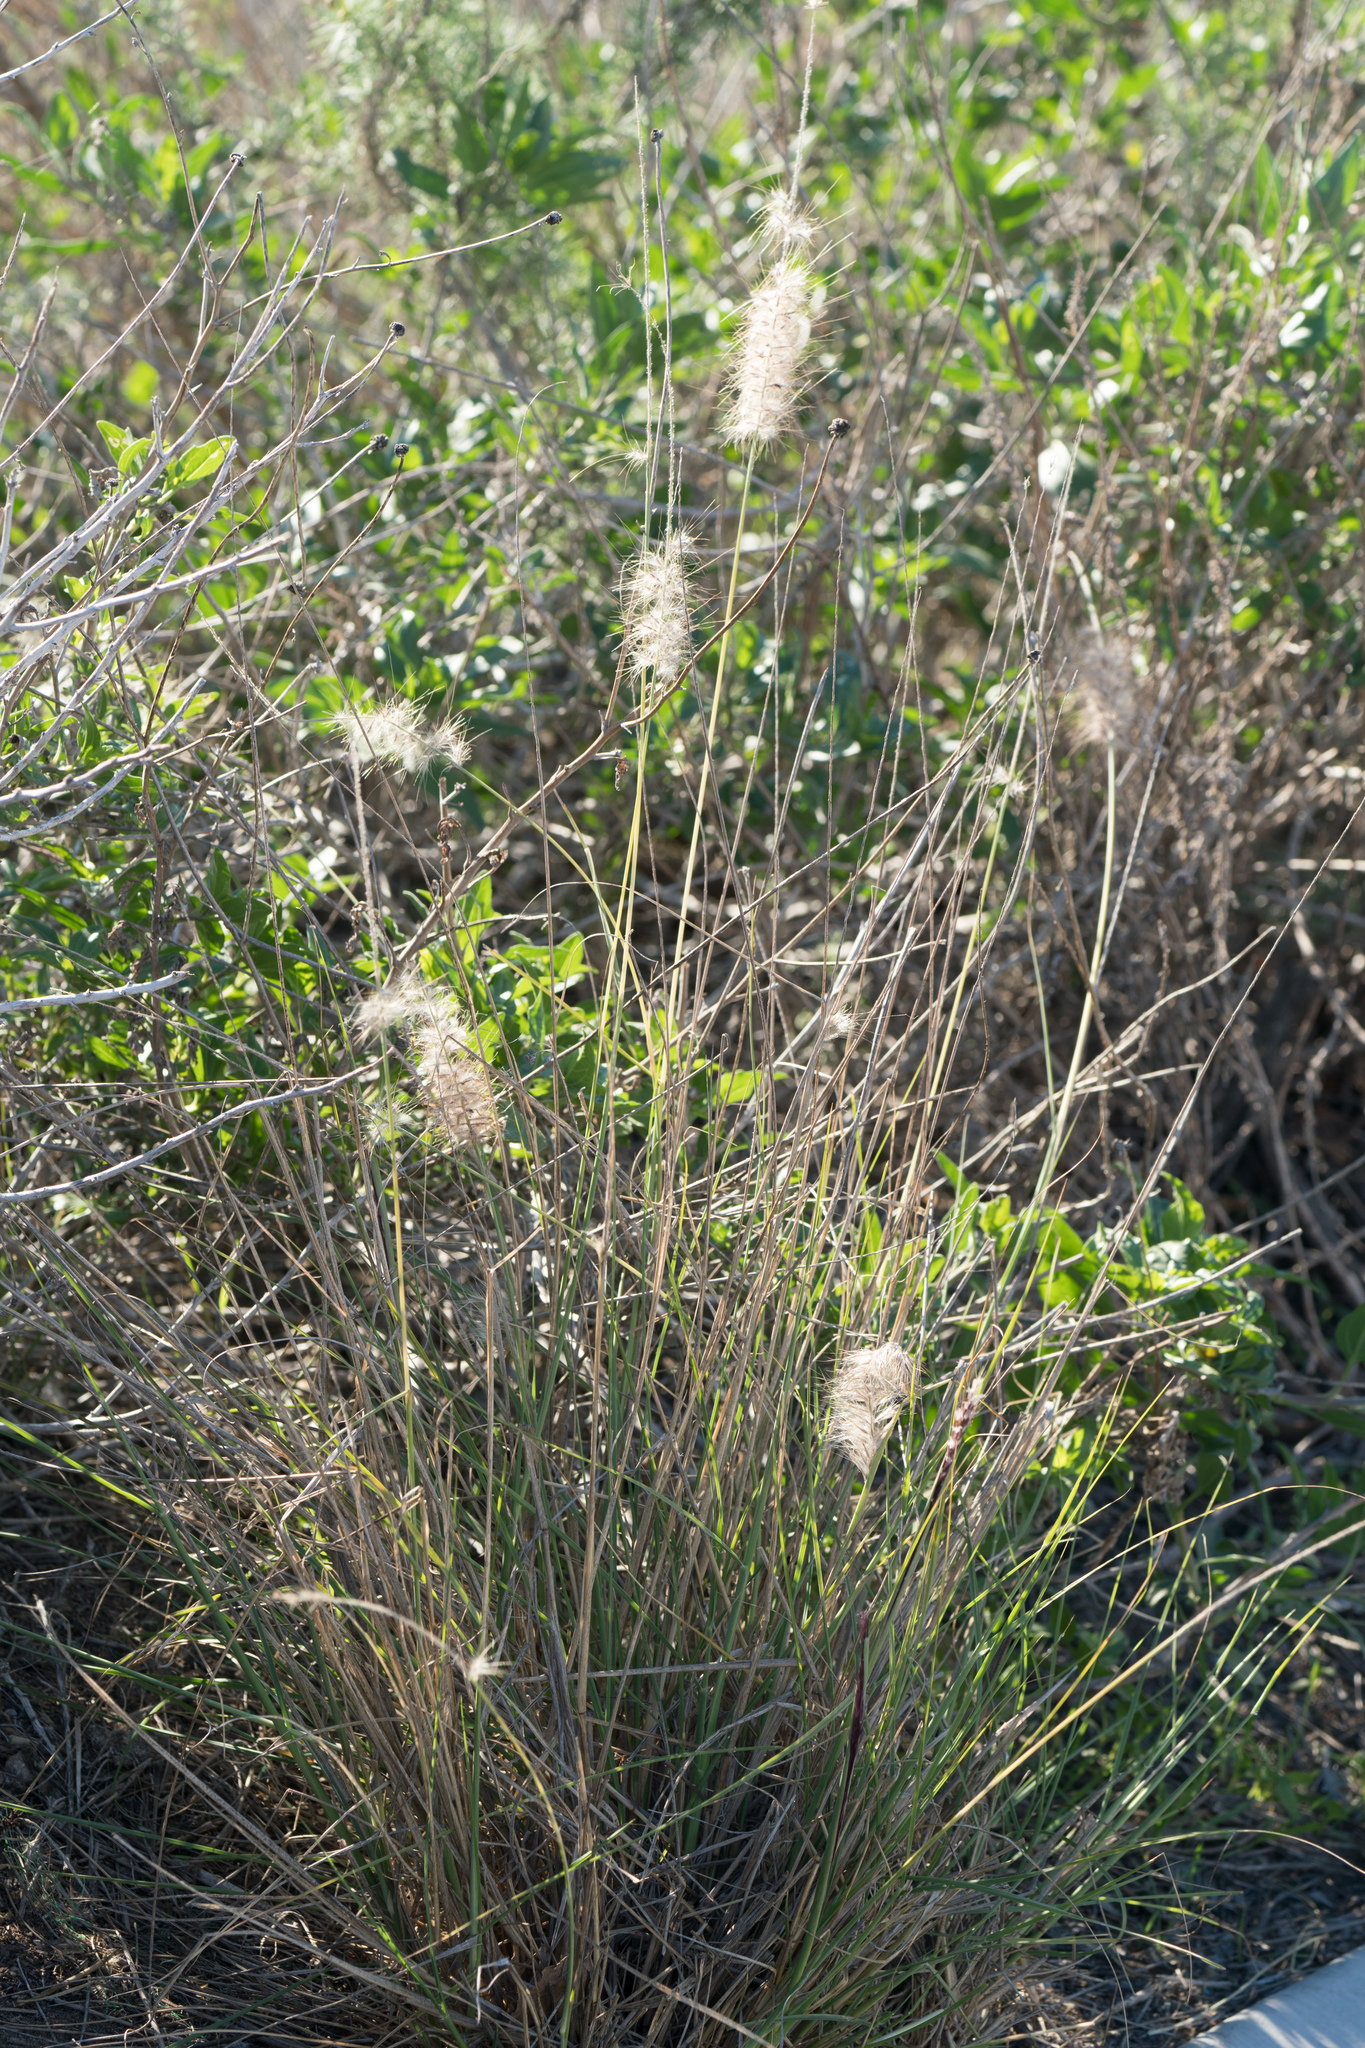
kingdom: Plantae
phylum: Tracheophyta
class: Liliopsida
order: Poales
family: Poaceae
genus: Cenchrus
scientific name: Cenchrus setaceus
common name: Crimson fountaingrass
